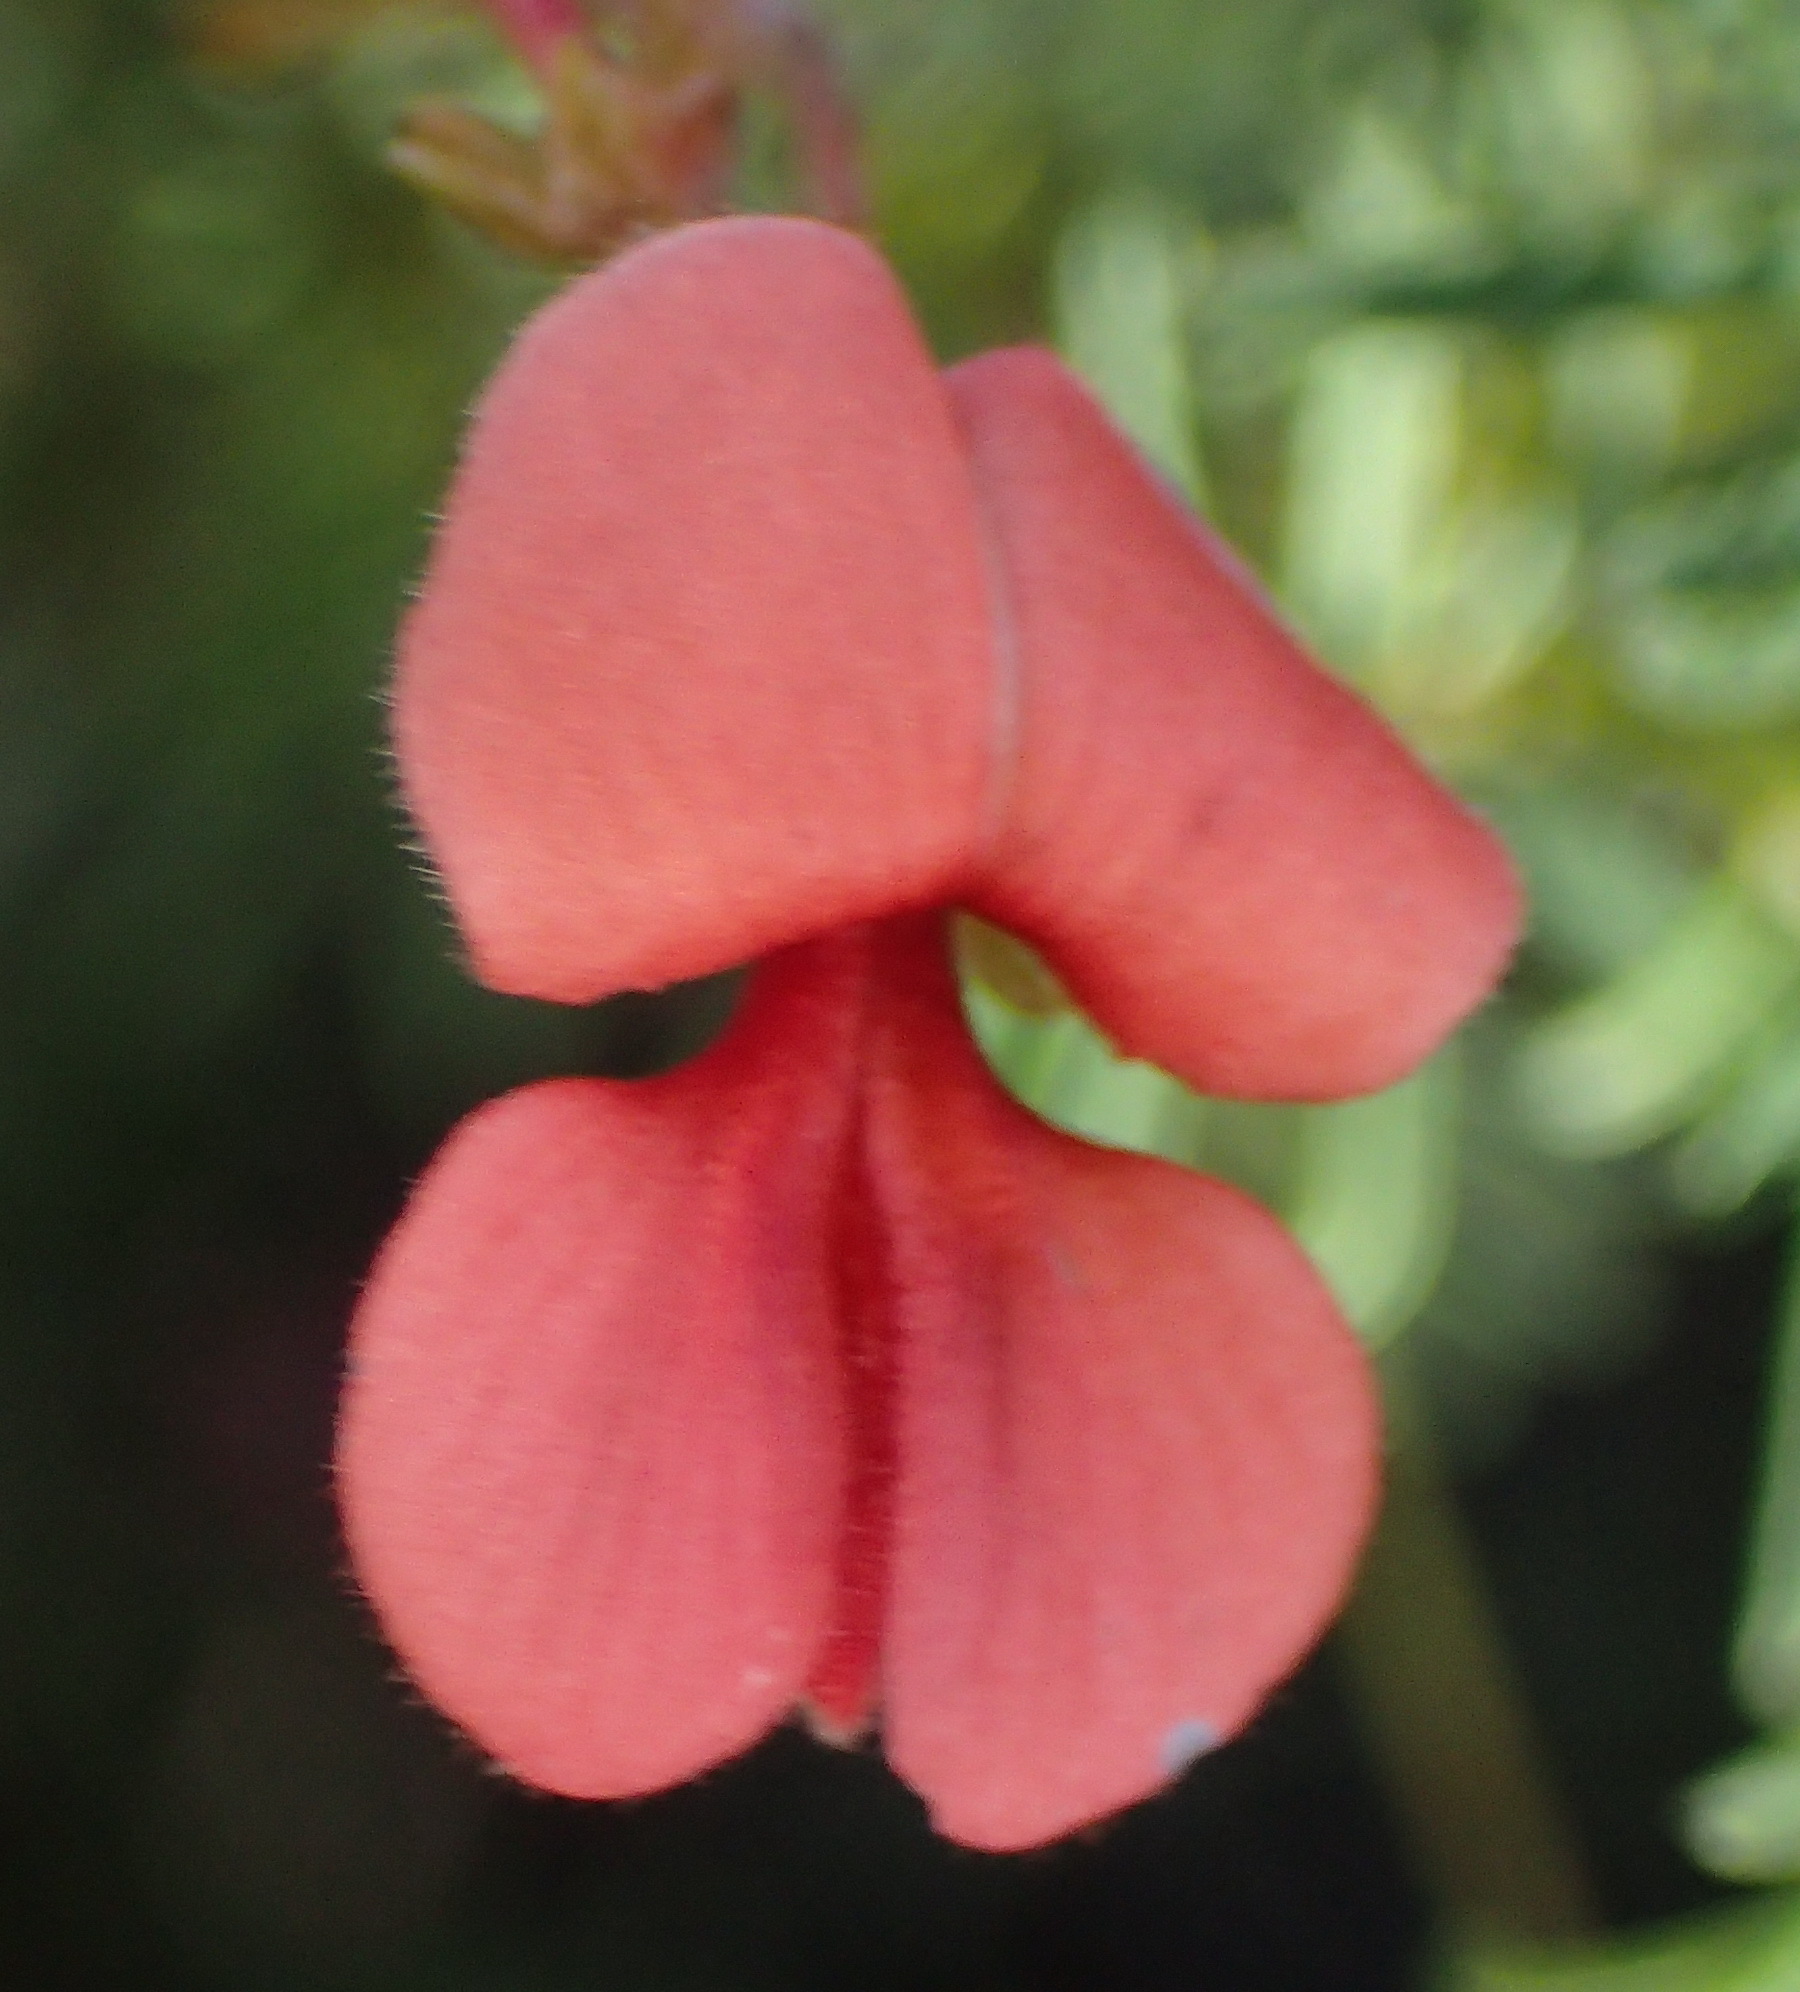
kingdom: Plantae
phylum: Tracheophyta
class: Magnoliopsida
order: Fabales
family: Fabaceae
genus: Indigofera
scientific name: Indigofera verrucosa
